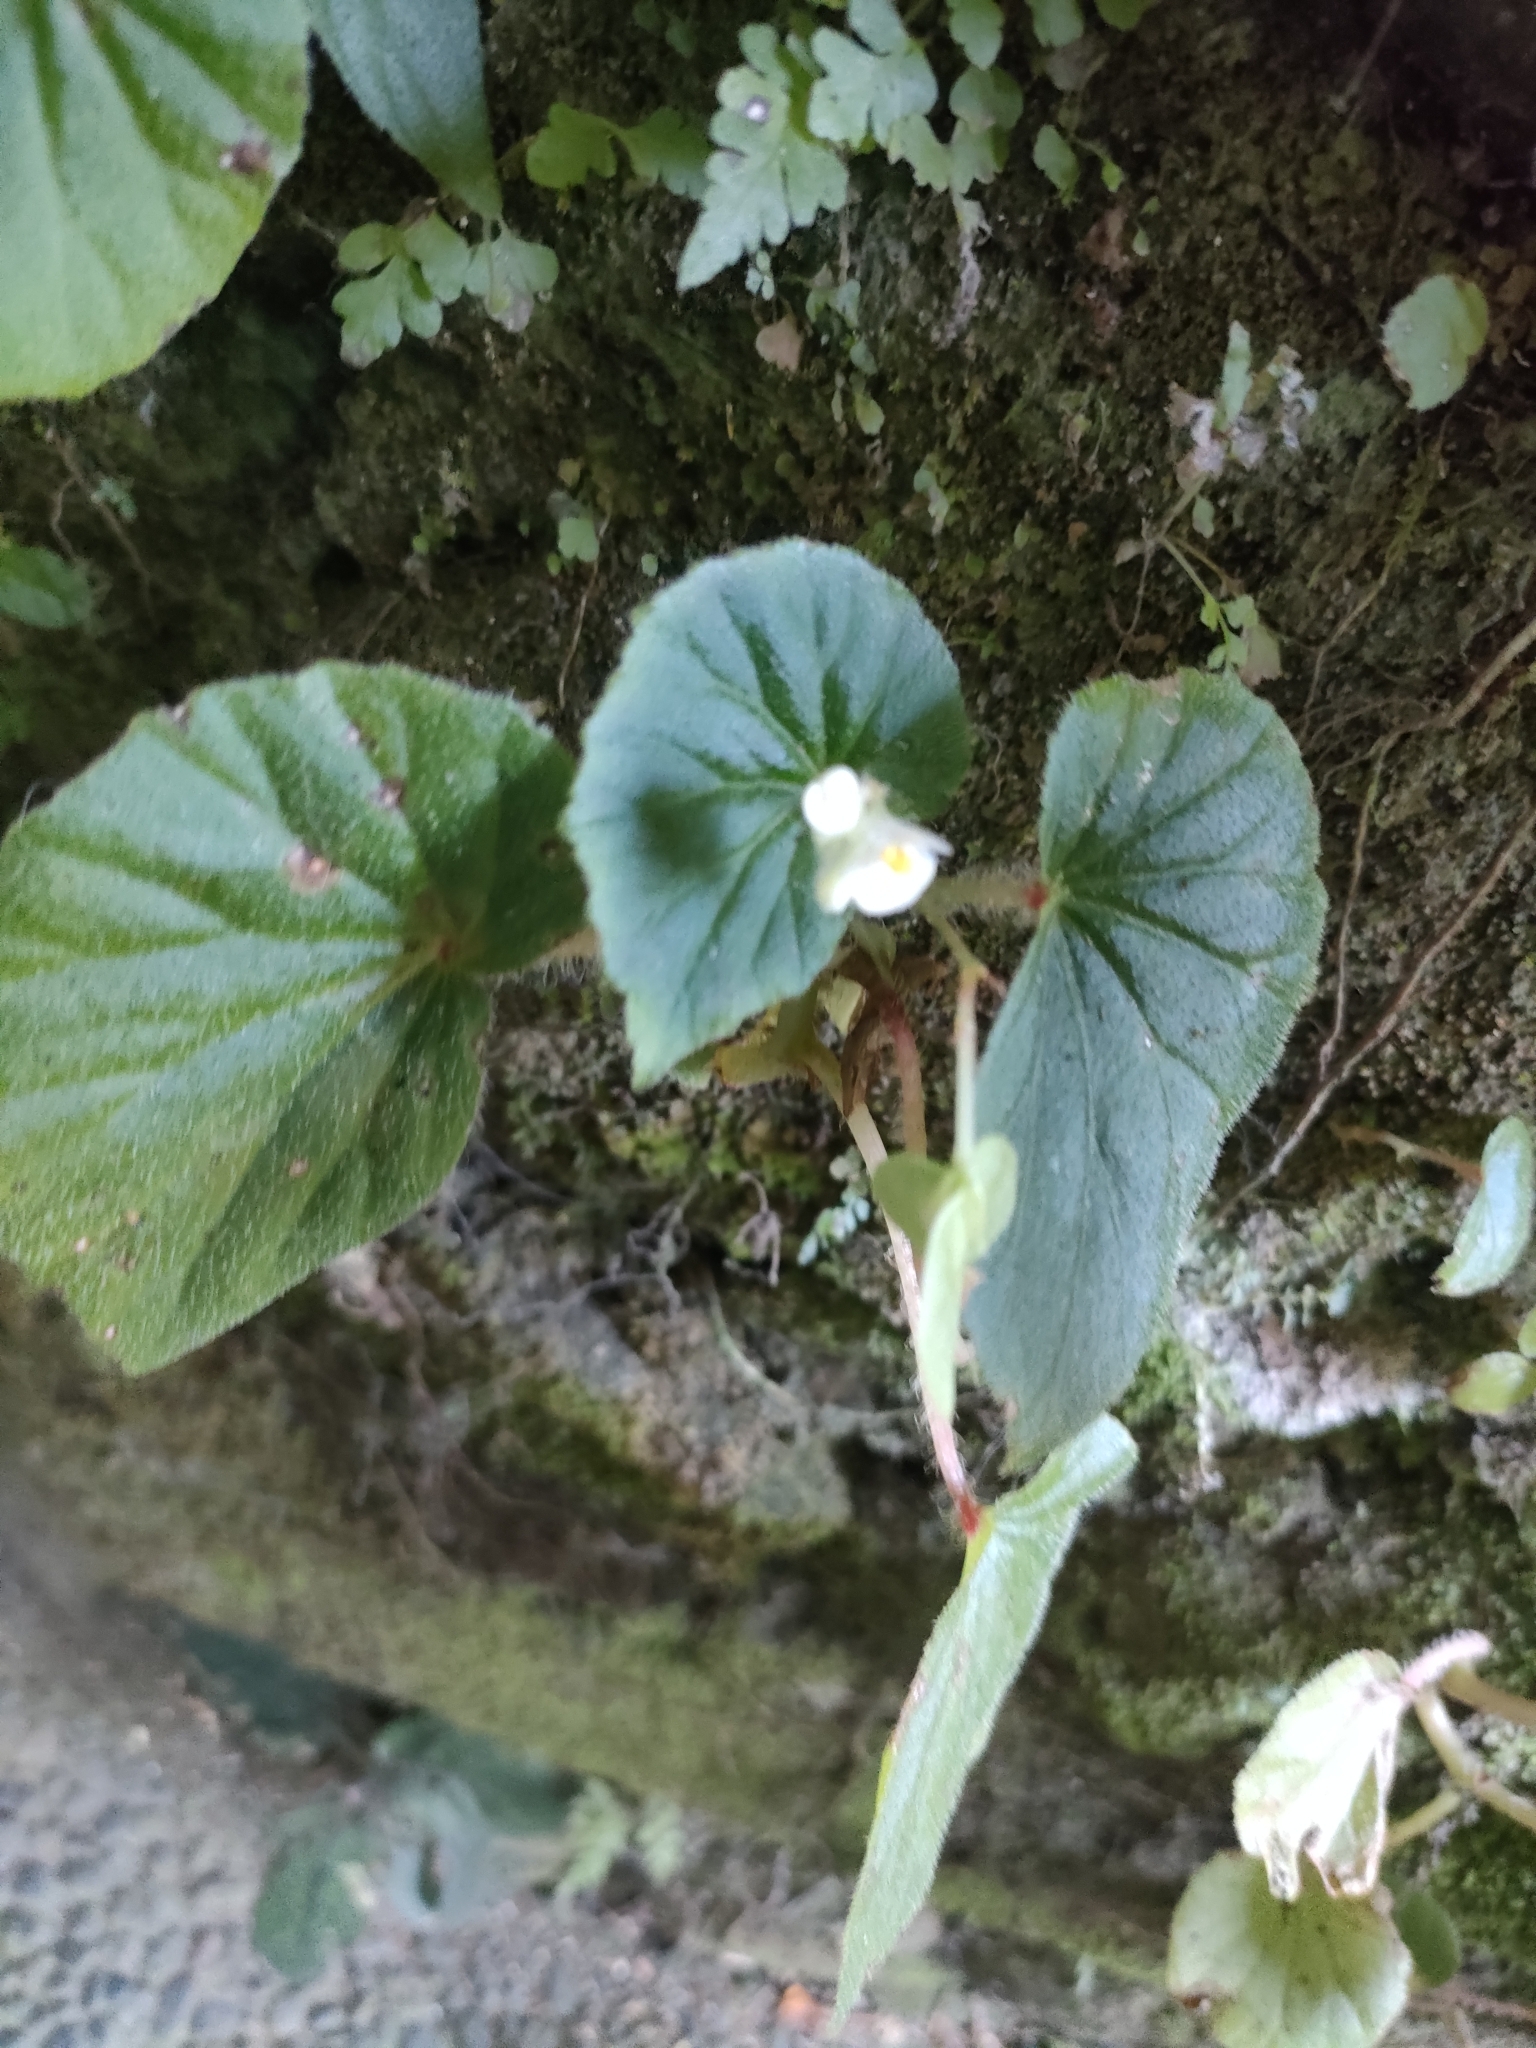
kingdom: Plantae
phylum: Tracheophyta
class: Magnoliopsida
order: Cucurbitales
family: Begoniaceae
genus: Begonia
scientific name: Begonia hirtella
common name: Brazilian begonia
